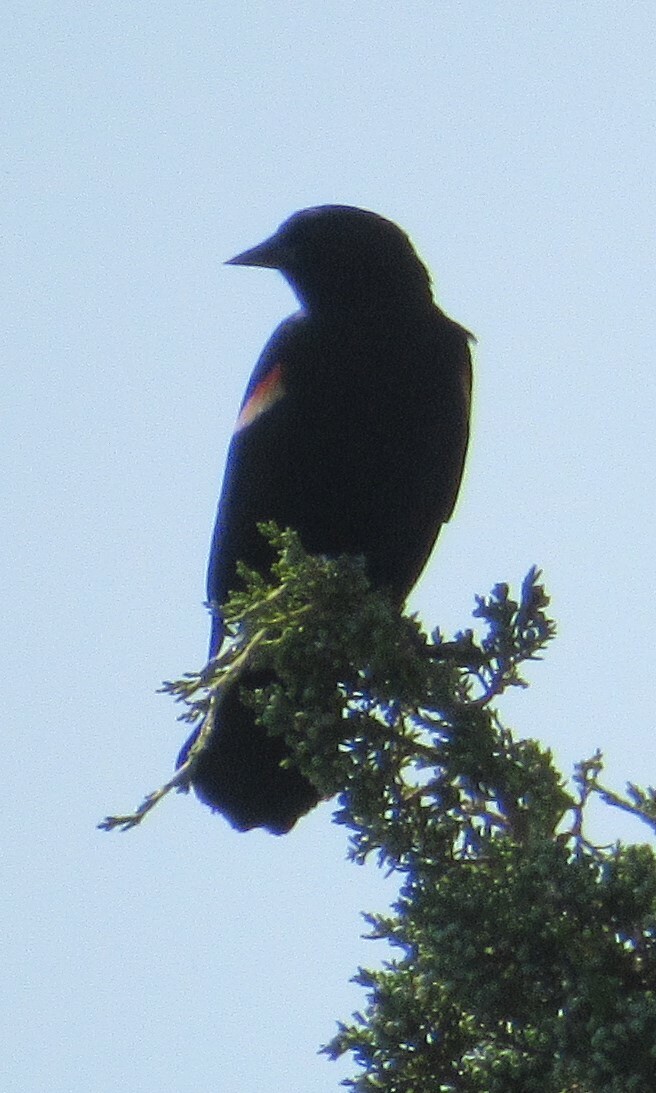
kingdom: Animalia
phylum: Chordata
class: Aves
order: Passeriformes
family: Icteridae
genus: Agelaius
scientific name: Agelaius phoeniceus
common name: Red-winged blackbird
